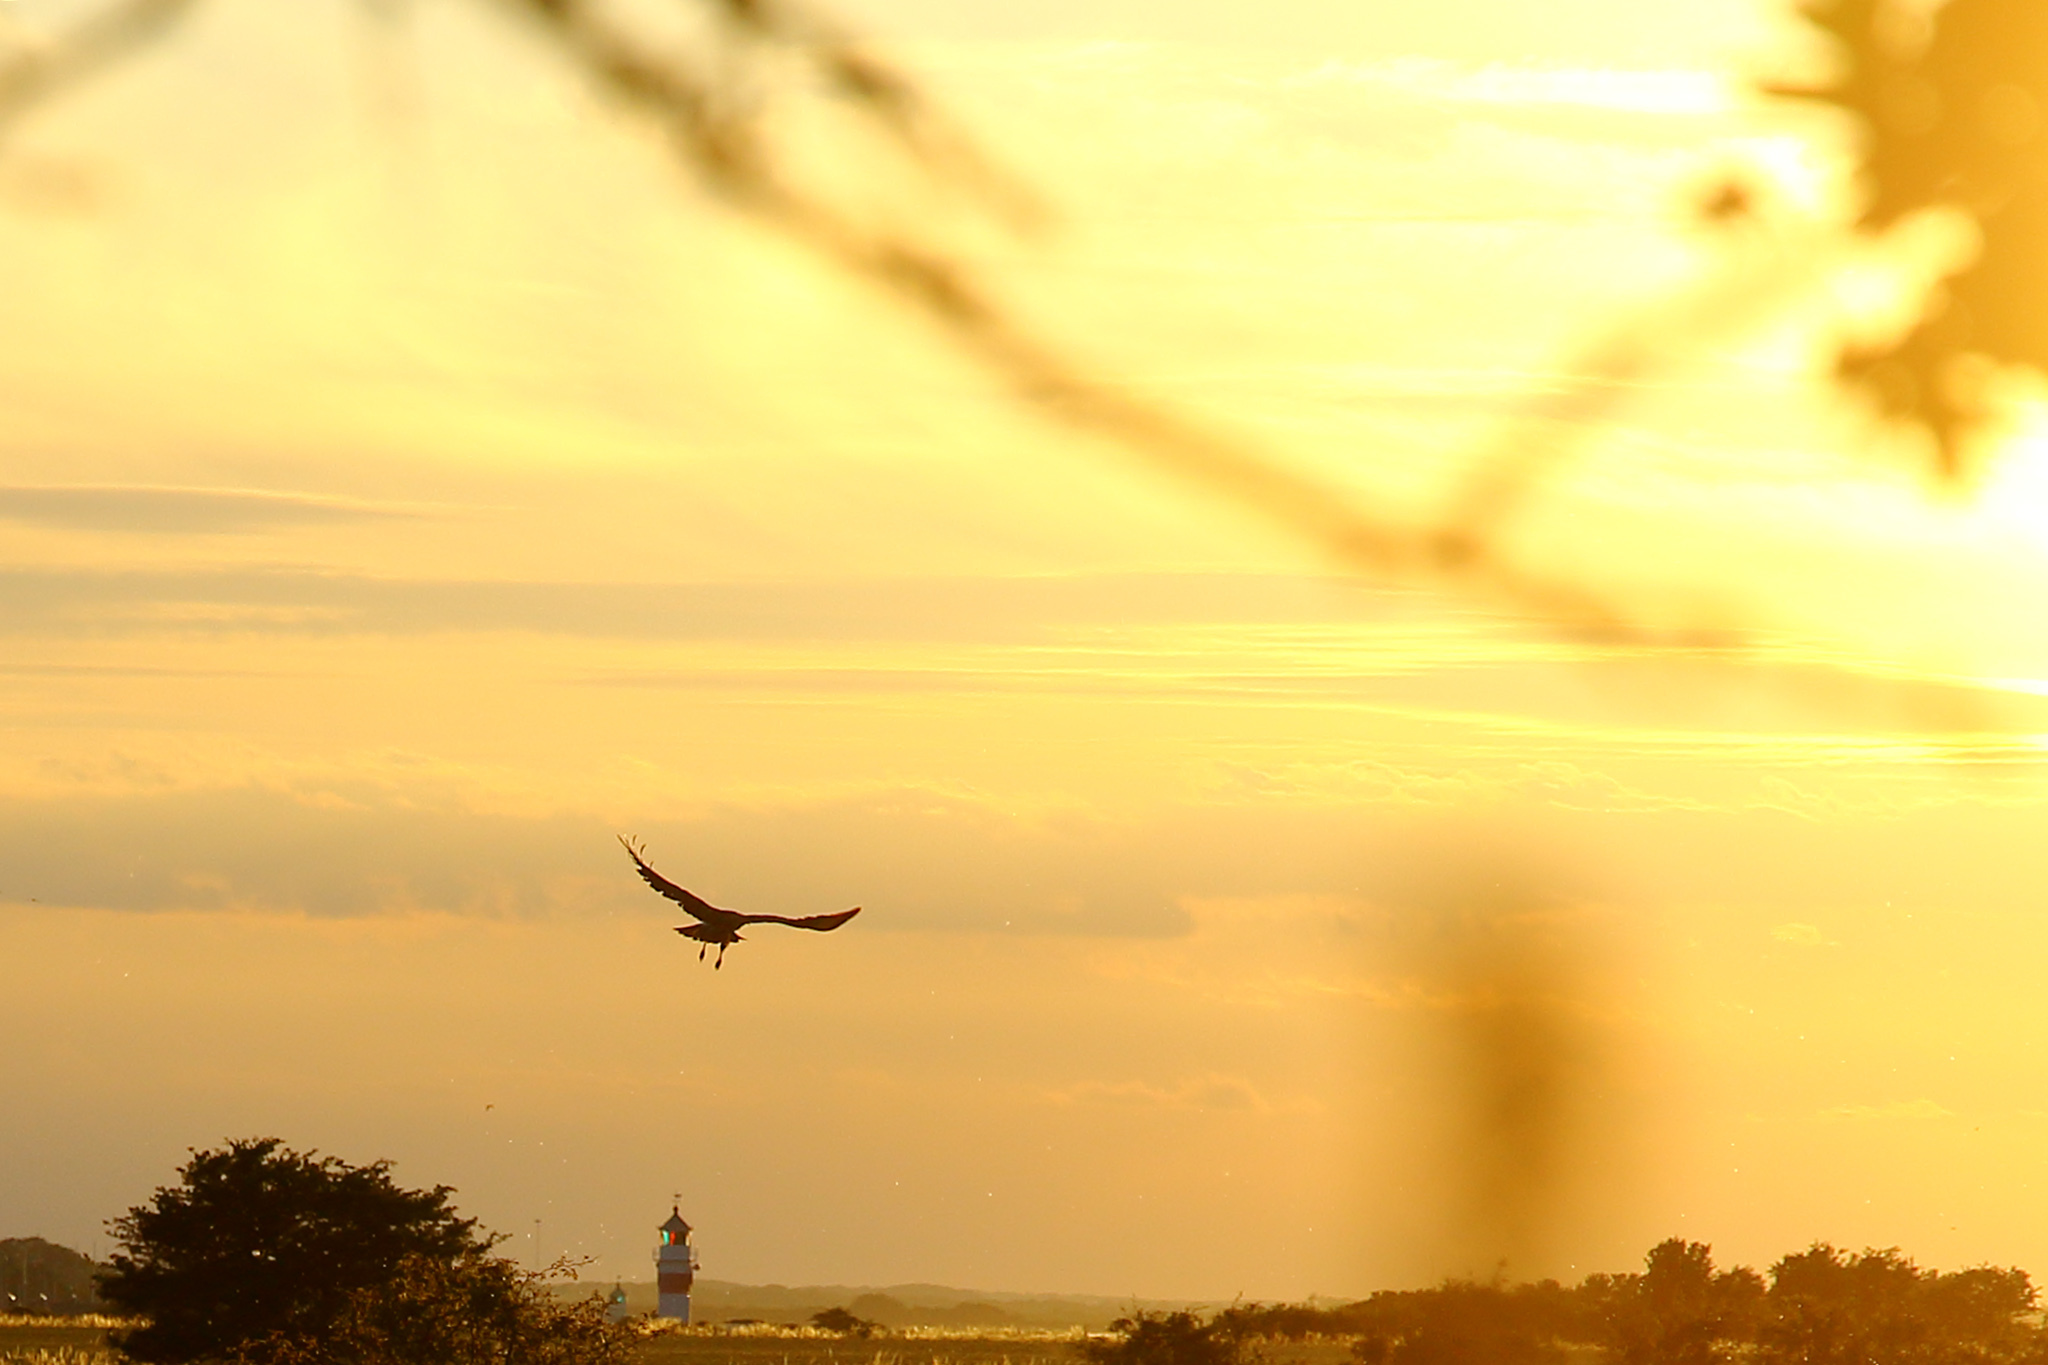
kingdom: Animalia
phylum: Chordata
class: Aves
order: Accipitriformes
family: Accipitridae
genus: Circus
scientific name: Circus aeruginosus
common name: Western marsh harrier
